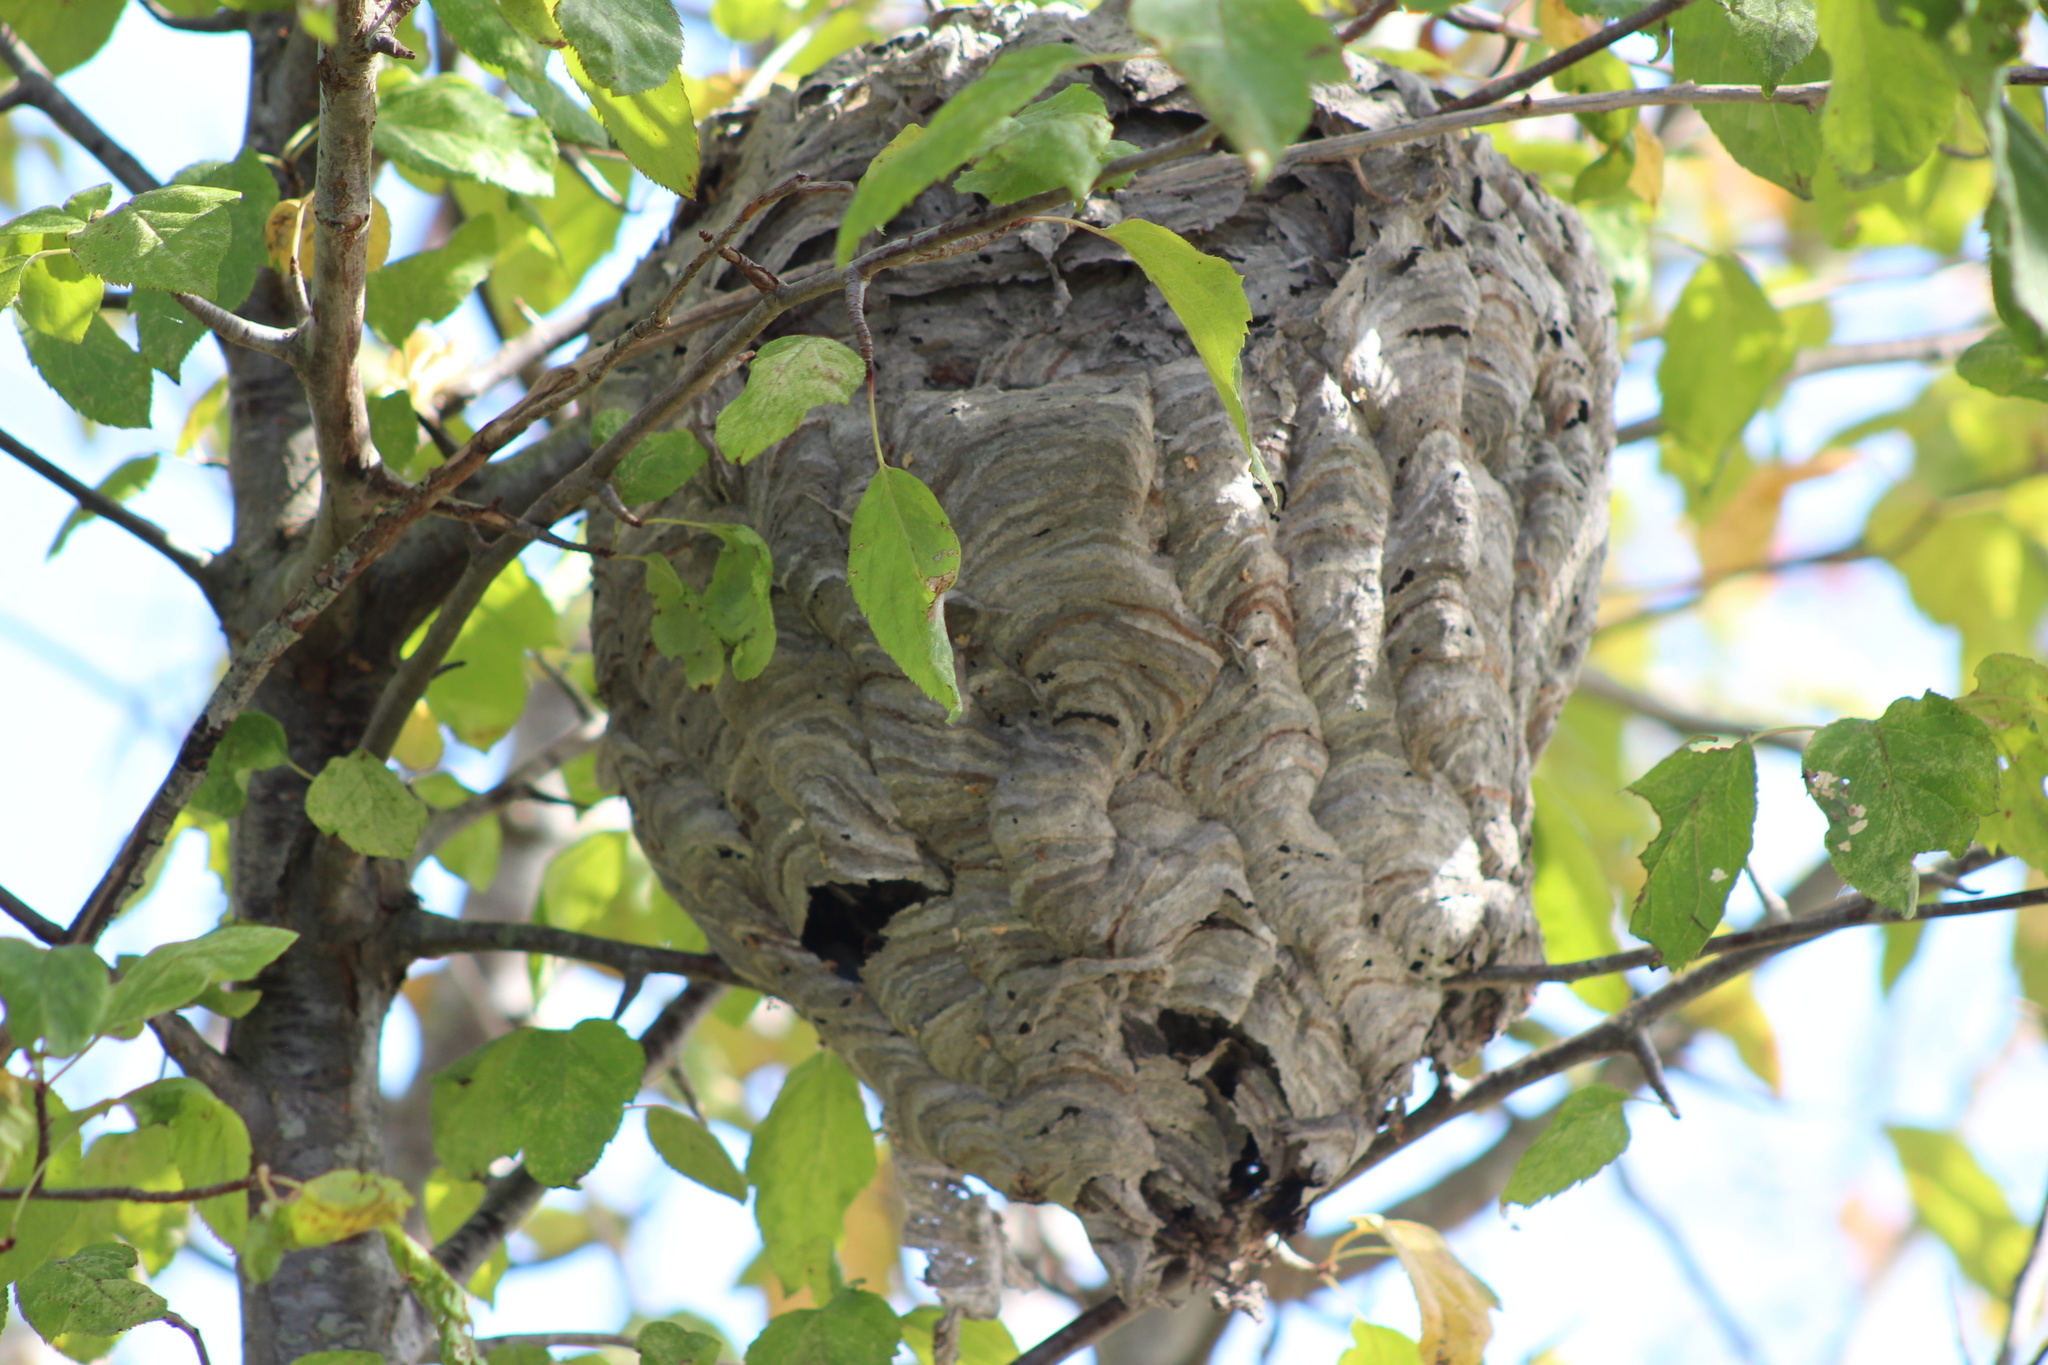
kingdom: Animalia
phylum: Arthropoda
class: Insecta
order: Hymenoptera
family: Vespidae
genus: Dolichovespula
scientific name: Dolichovespula maculata
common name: Bald-faced hornet
